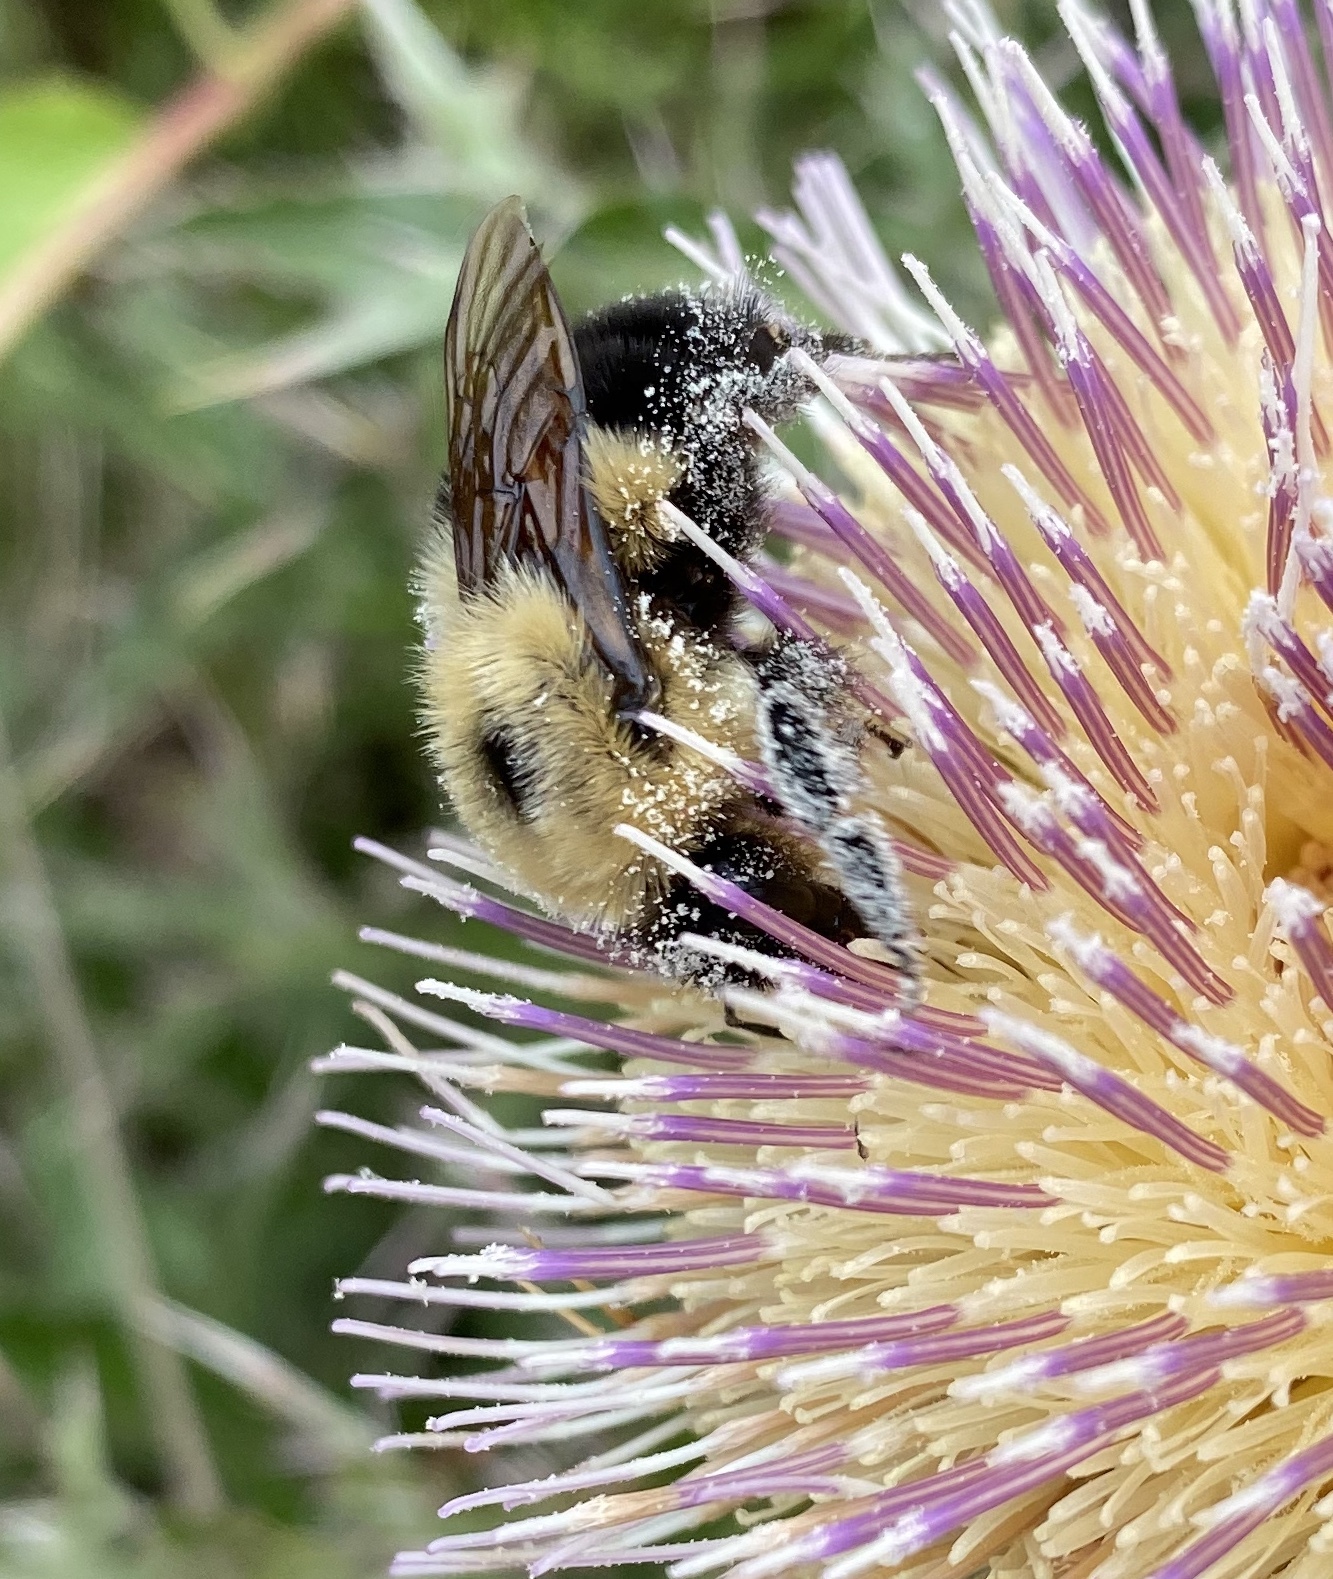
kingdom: Animalia
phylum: Arthropoda
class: Insecta
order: Hymenoptera
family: Apidae
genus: Bombus
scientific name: Bombus bimaculatus
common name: Two-spotted bumble bee
